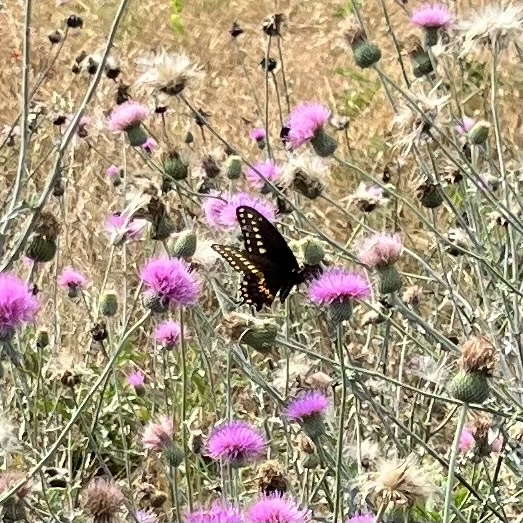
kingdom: Animalia
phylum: Arthropoda
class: Insecta
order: Lepidoptera
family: Papilionidae
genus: Papilio
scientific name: Papilio polyxenes
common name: Black swallowtail
